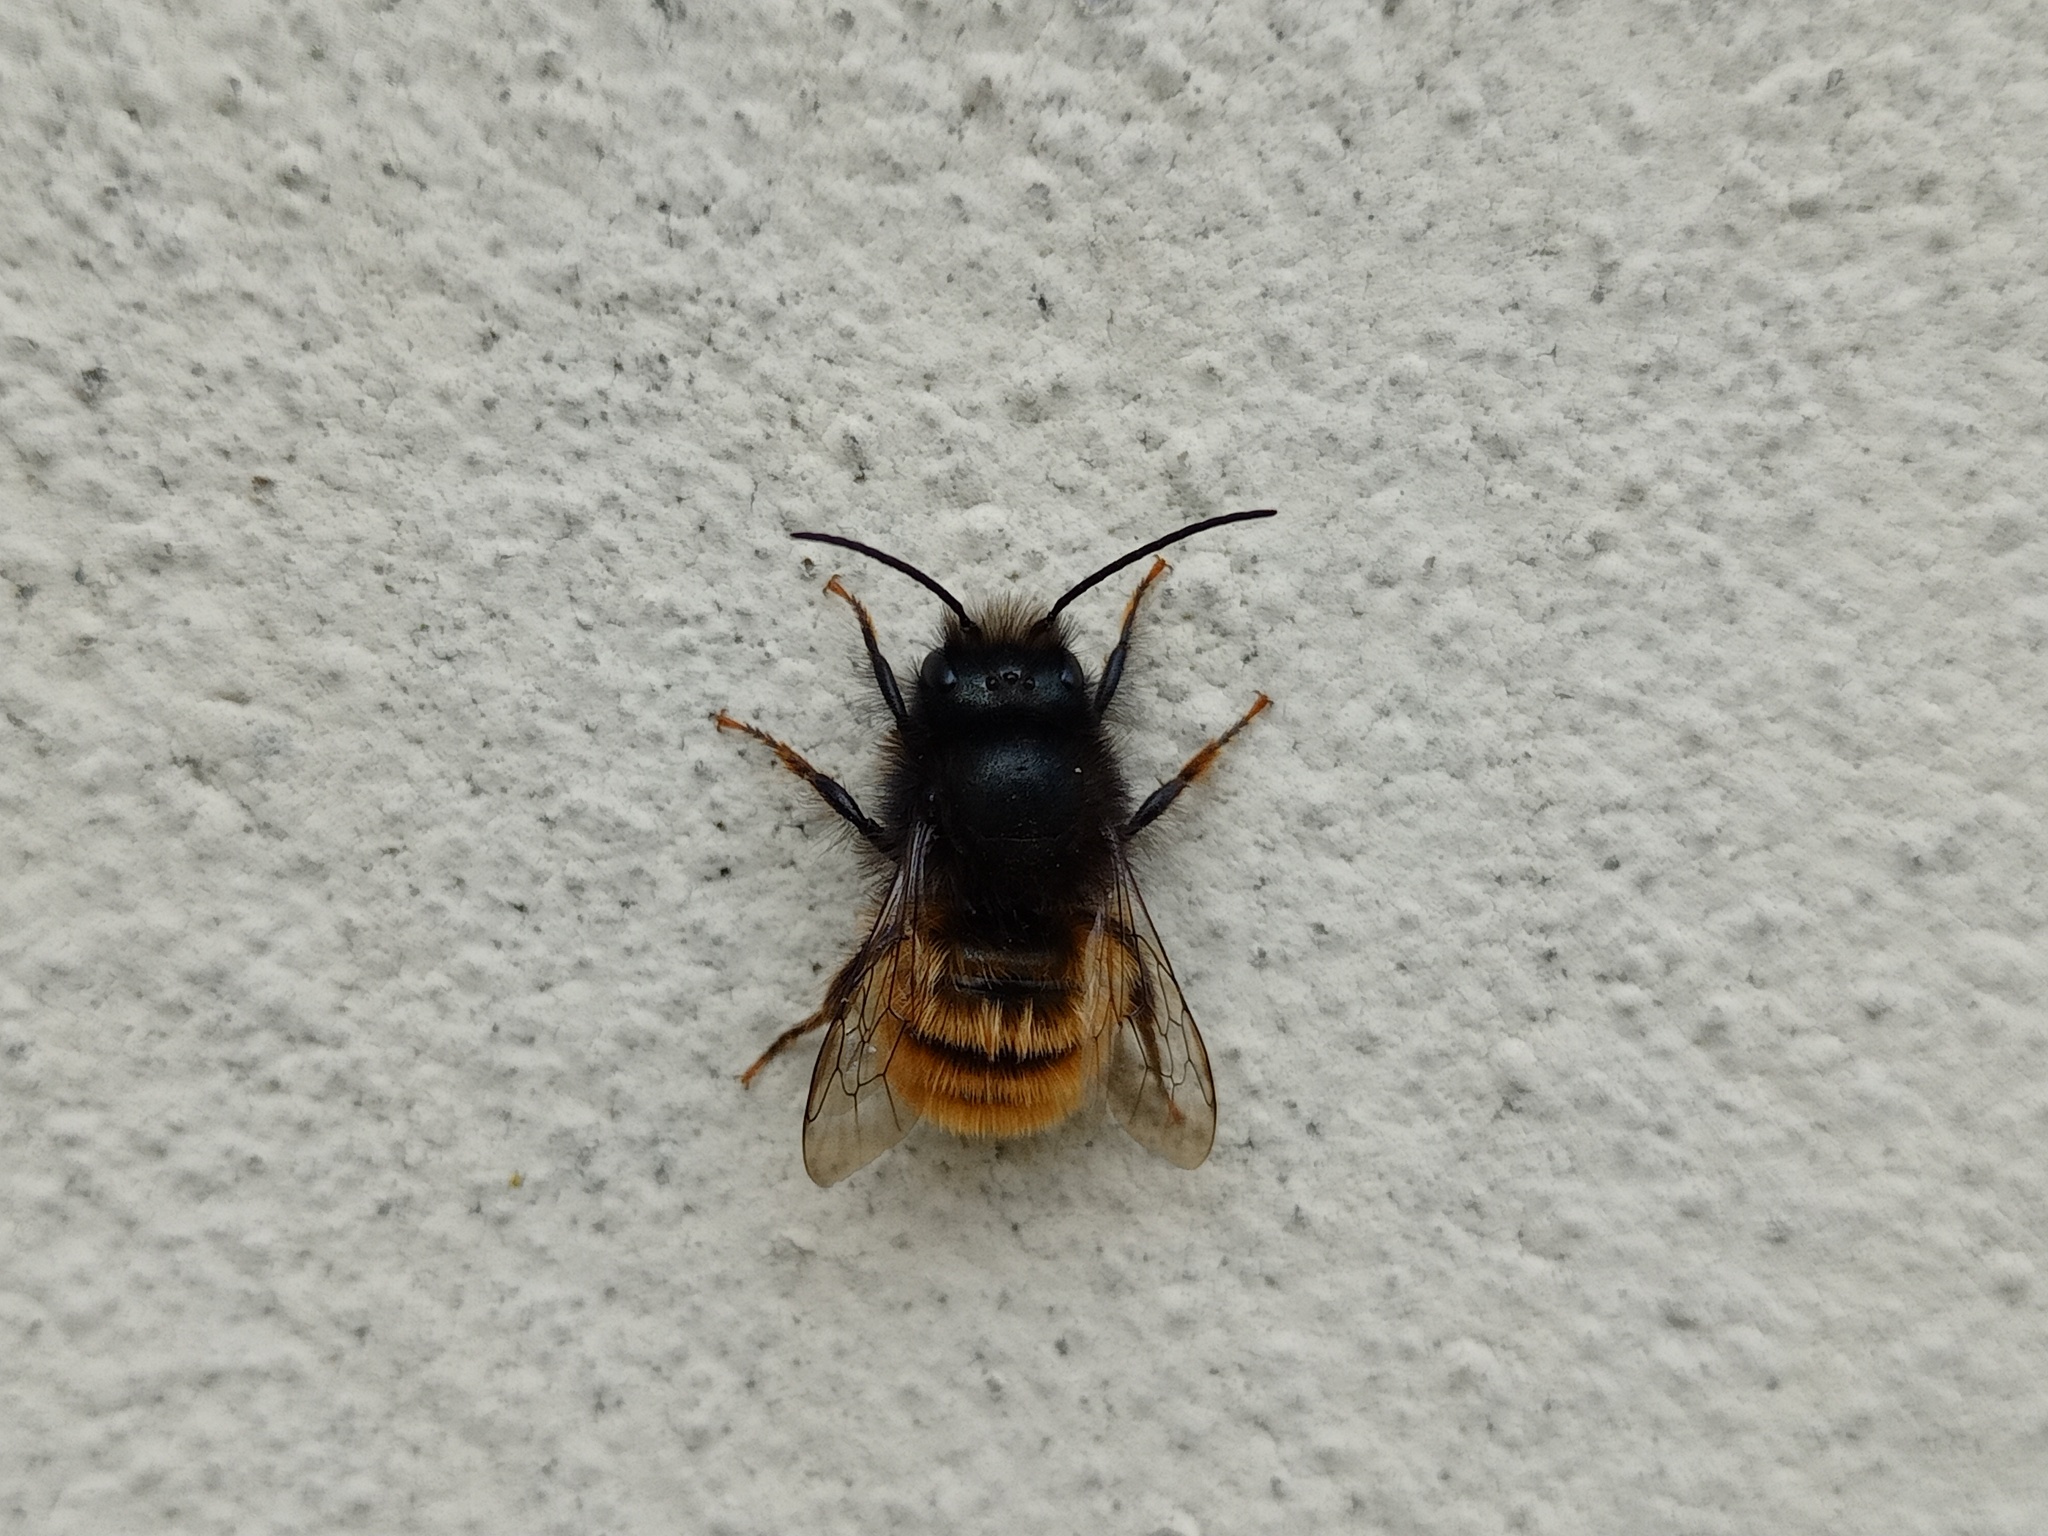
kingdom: Animalia
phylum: Arthropoda
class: Insecta
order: Hymenoptera
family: Megachilidae
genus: Osmia
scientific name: Osmia cornuta
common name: Mason bee
